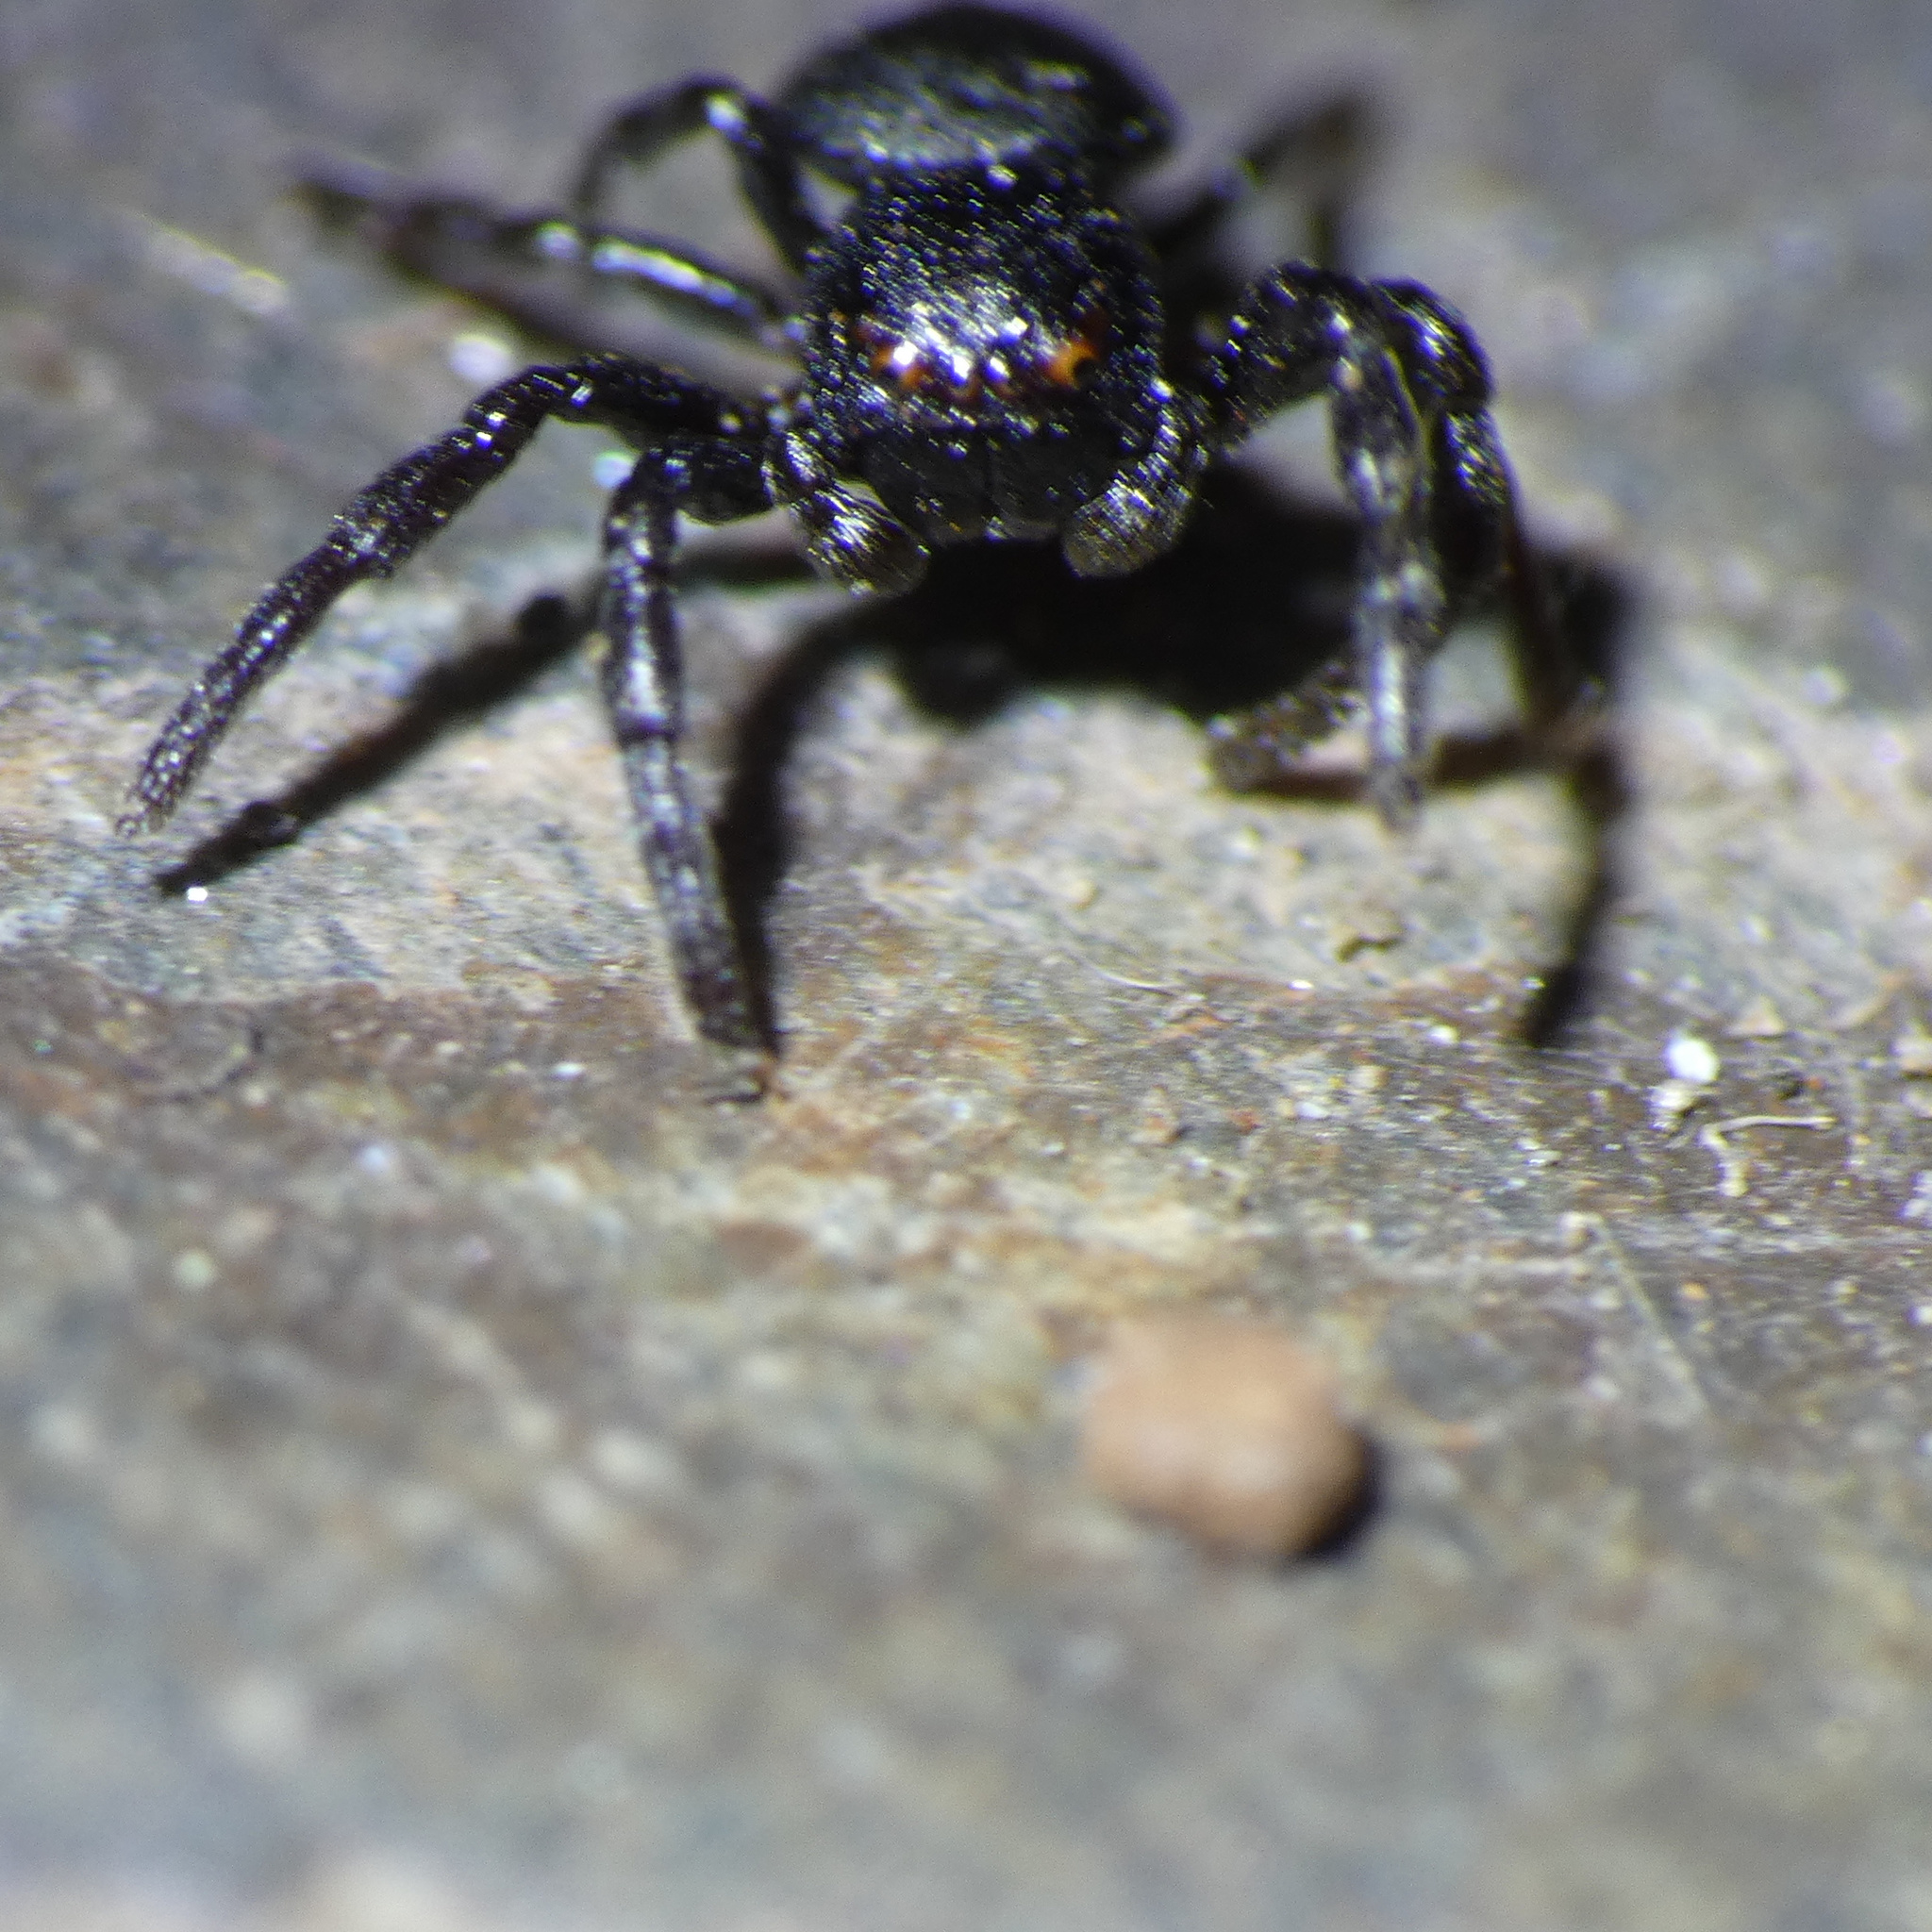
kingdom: Animalia
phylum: Arthropoda
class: Arachnida
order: Araneae
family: Thomisidae
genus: Stiphropus
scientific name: Stiphropus affinis
